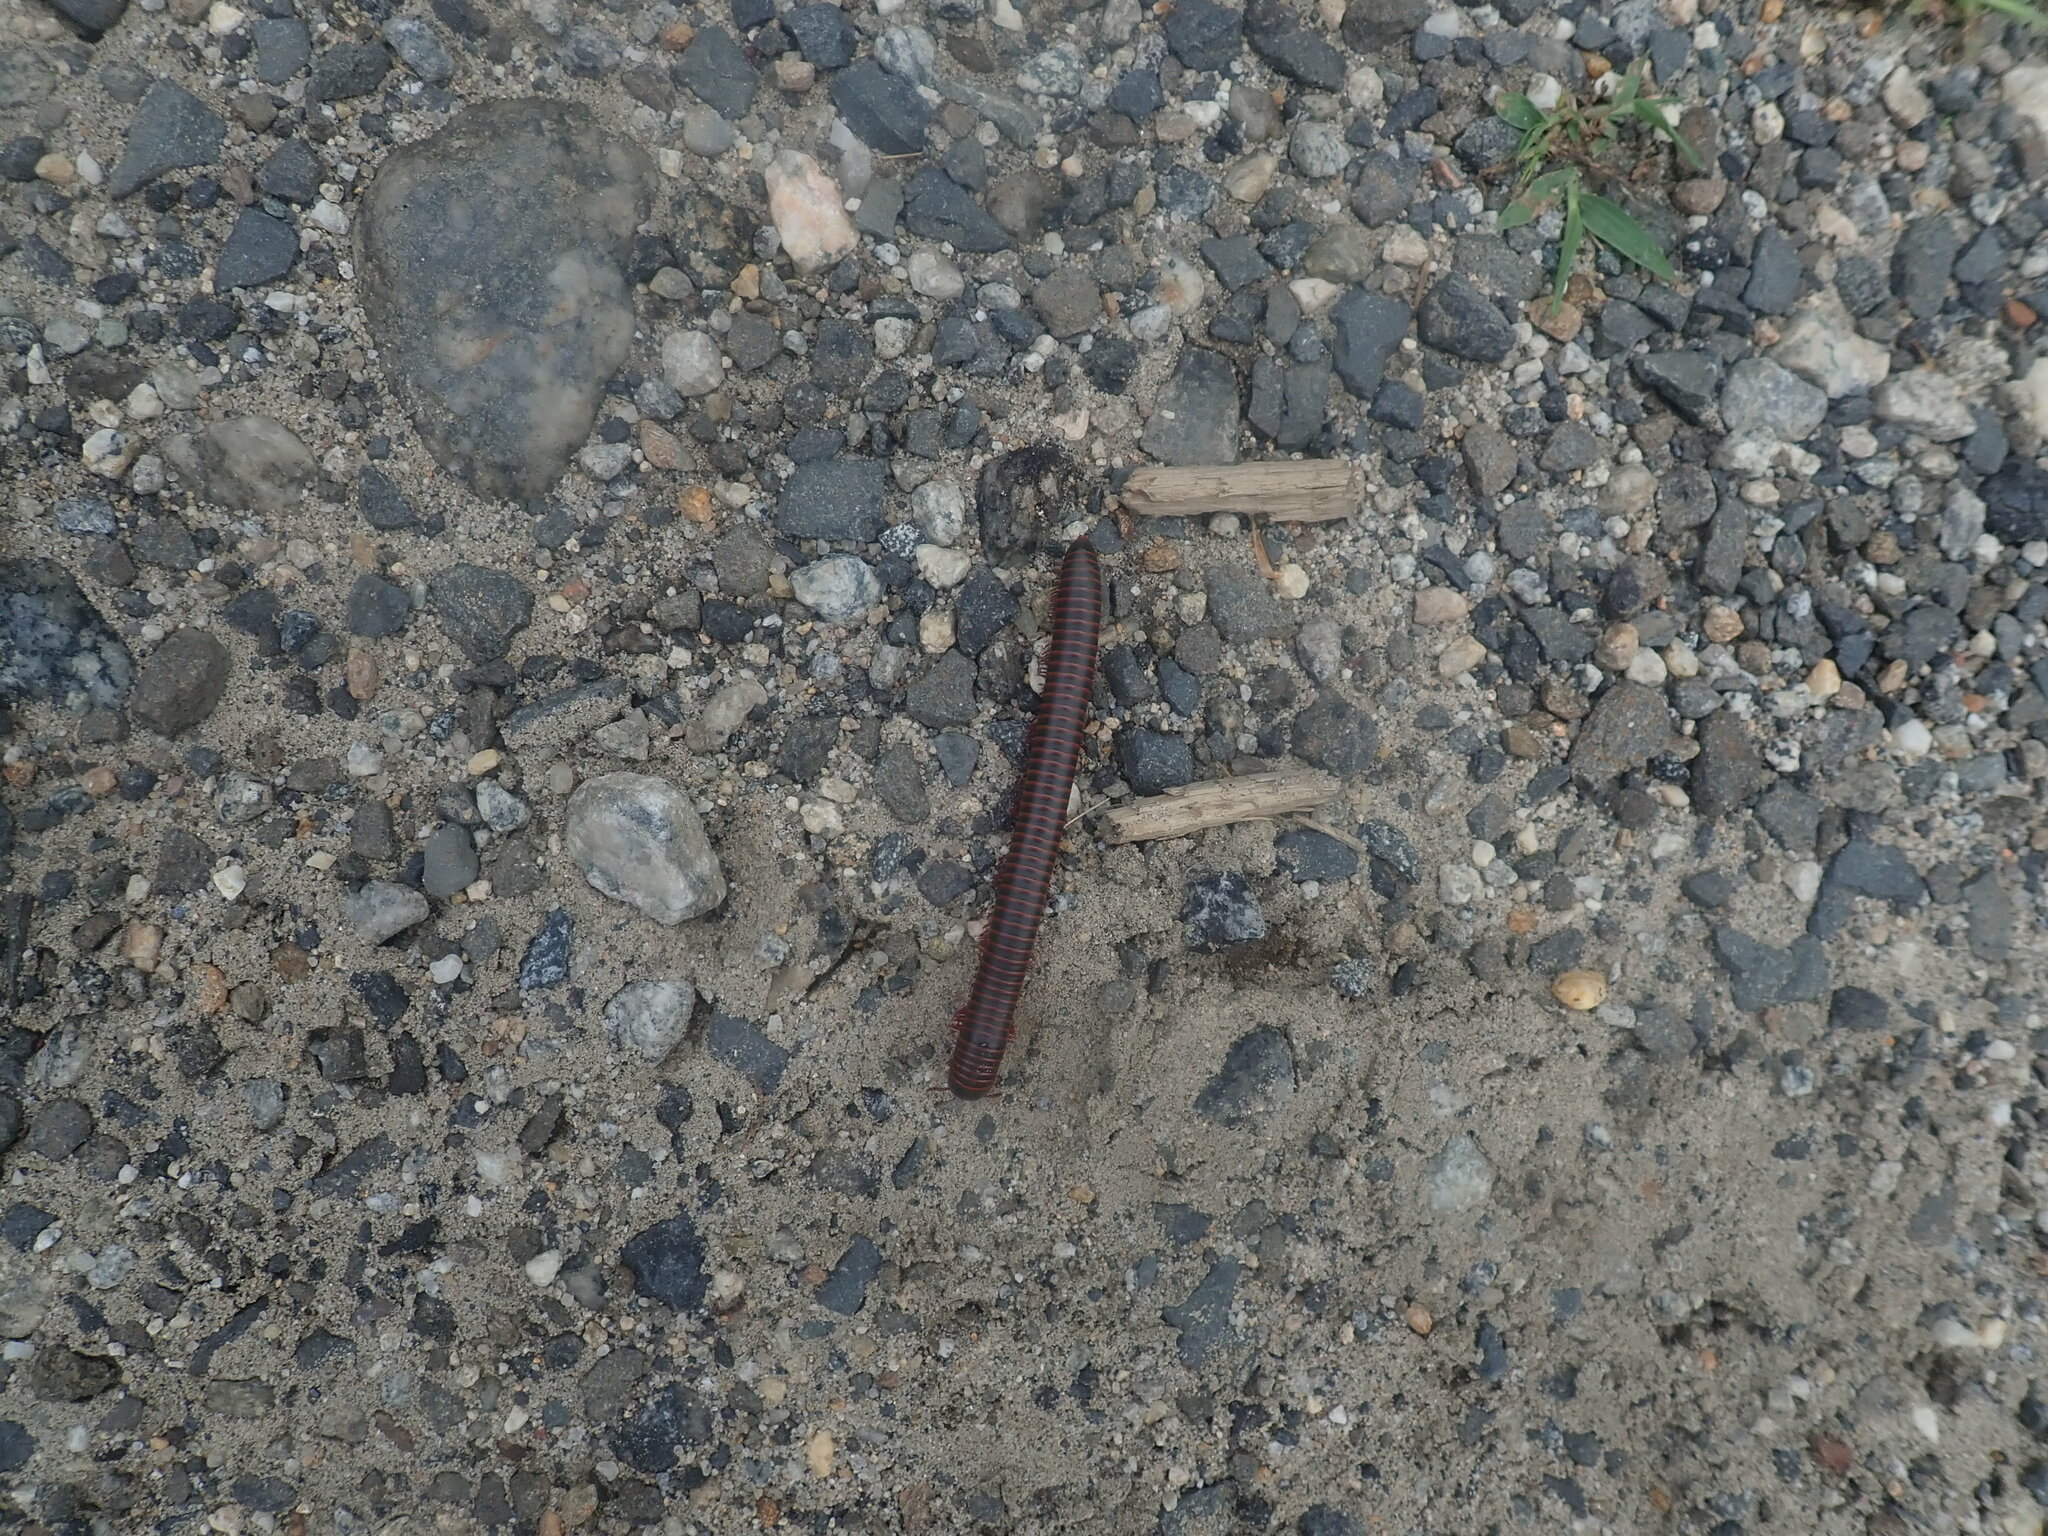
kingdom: Animalia
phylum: Arthropoda
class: Diplopoda
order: Spirobolida
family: Spirobolidae
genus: Narceus
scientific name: Narceus
